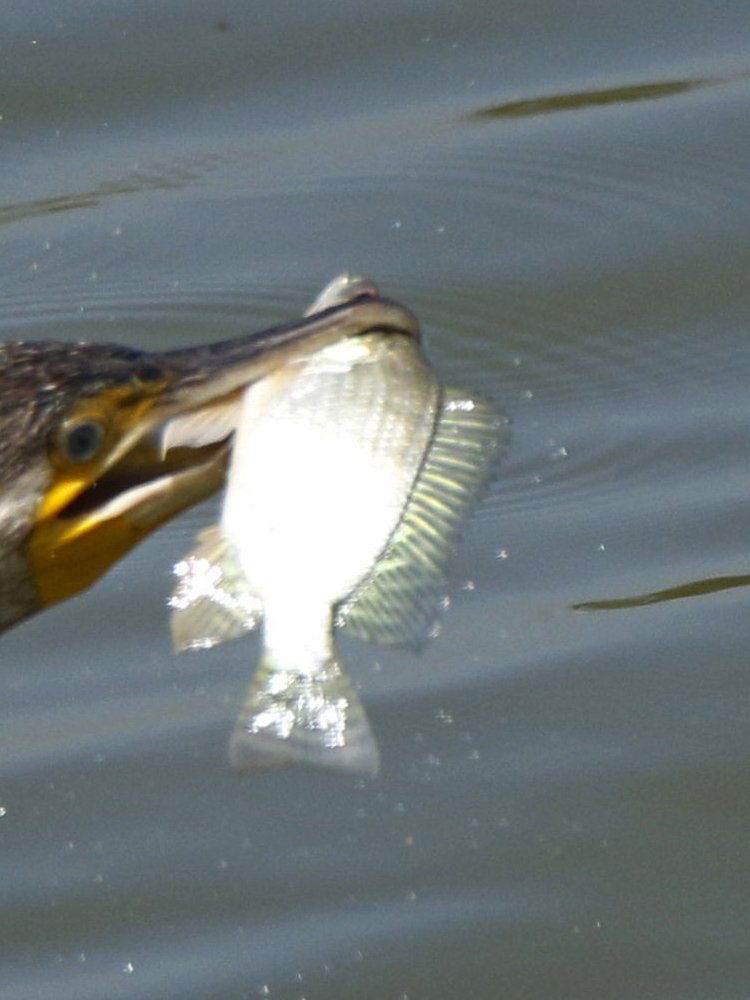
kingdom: Animalia
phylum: Chordata
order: Perciformes
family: Cichlidae
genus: Oreochromis
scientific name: Oreochromis niloticus
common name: Nile tilapia
